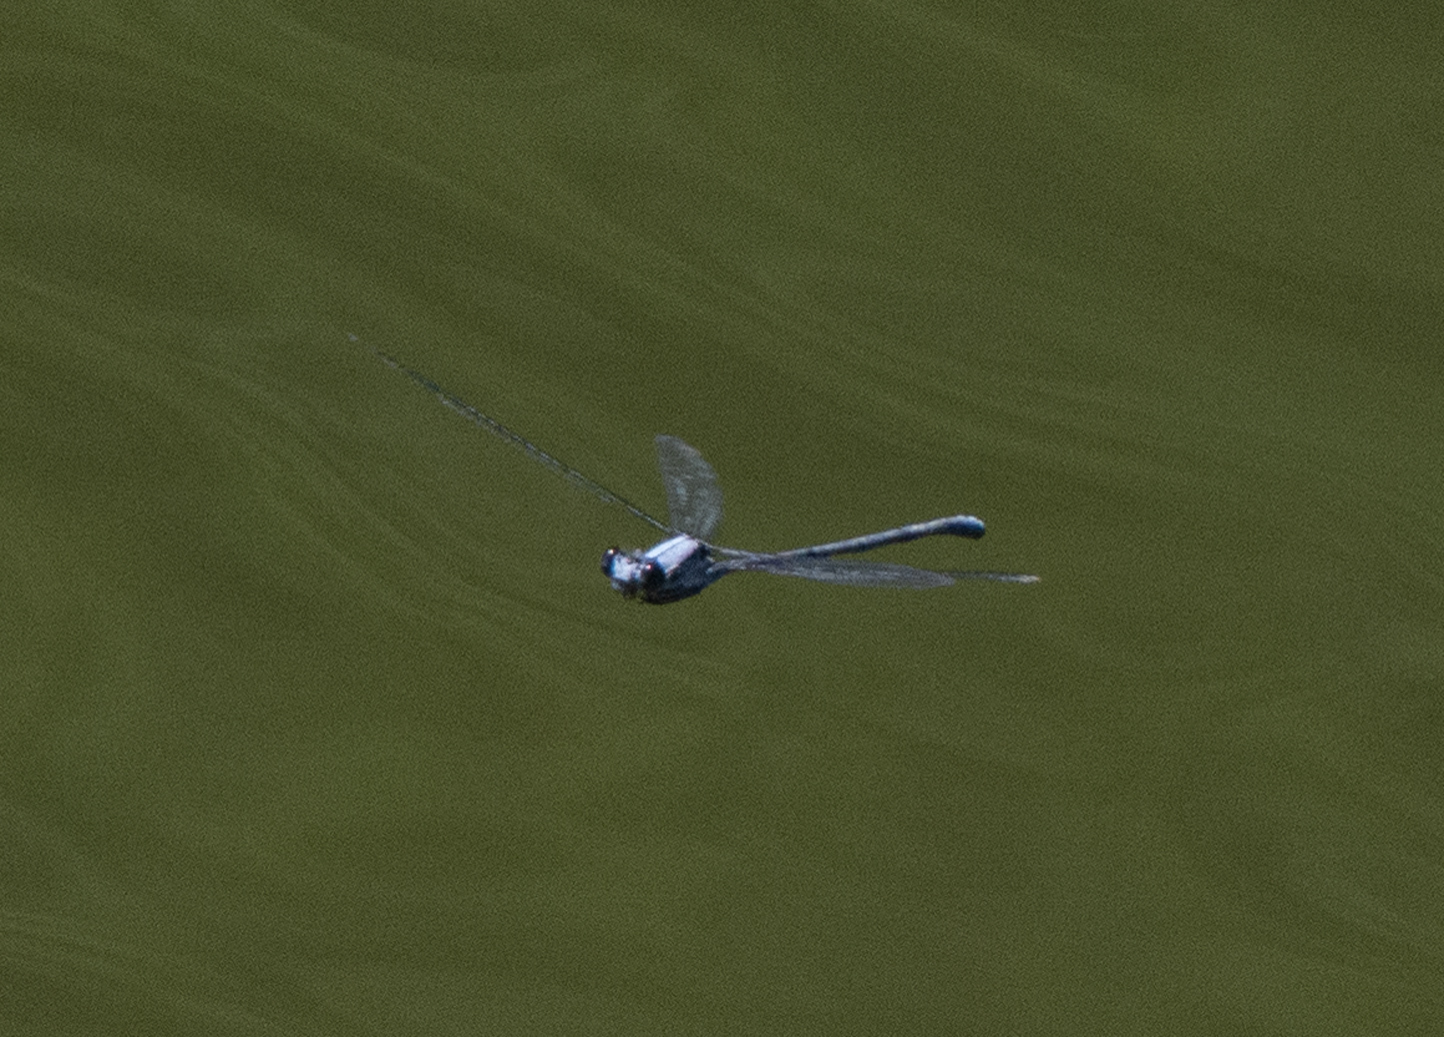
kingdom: Animalia
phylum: Arthropoda
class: Insecta
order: Odonata
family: Coenagrionidae
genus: Argia
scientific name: Argia moesta
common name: Powdered dancer
